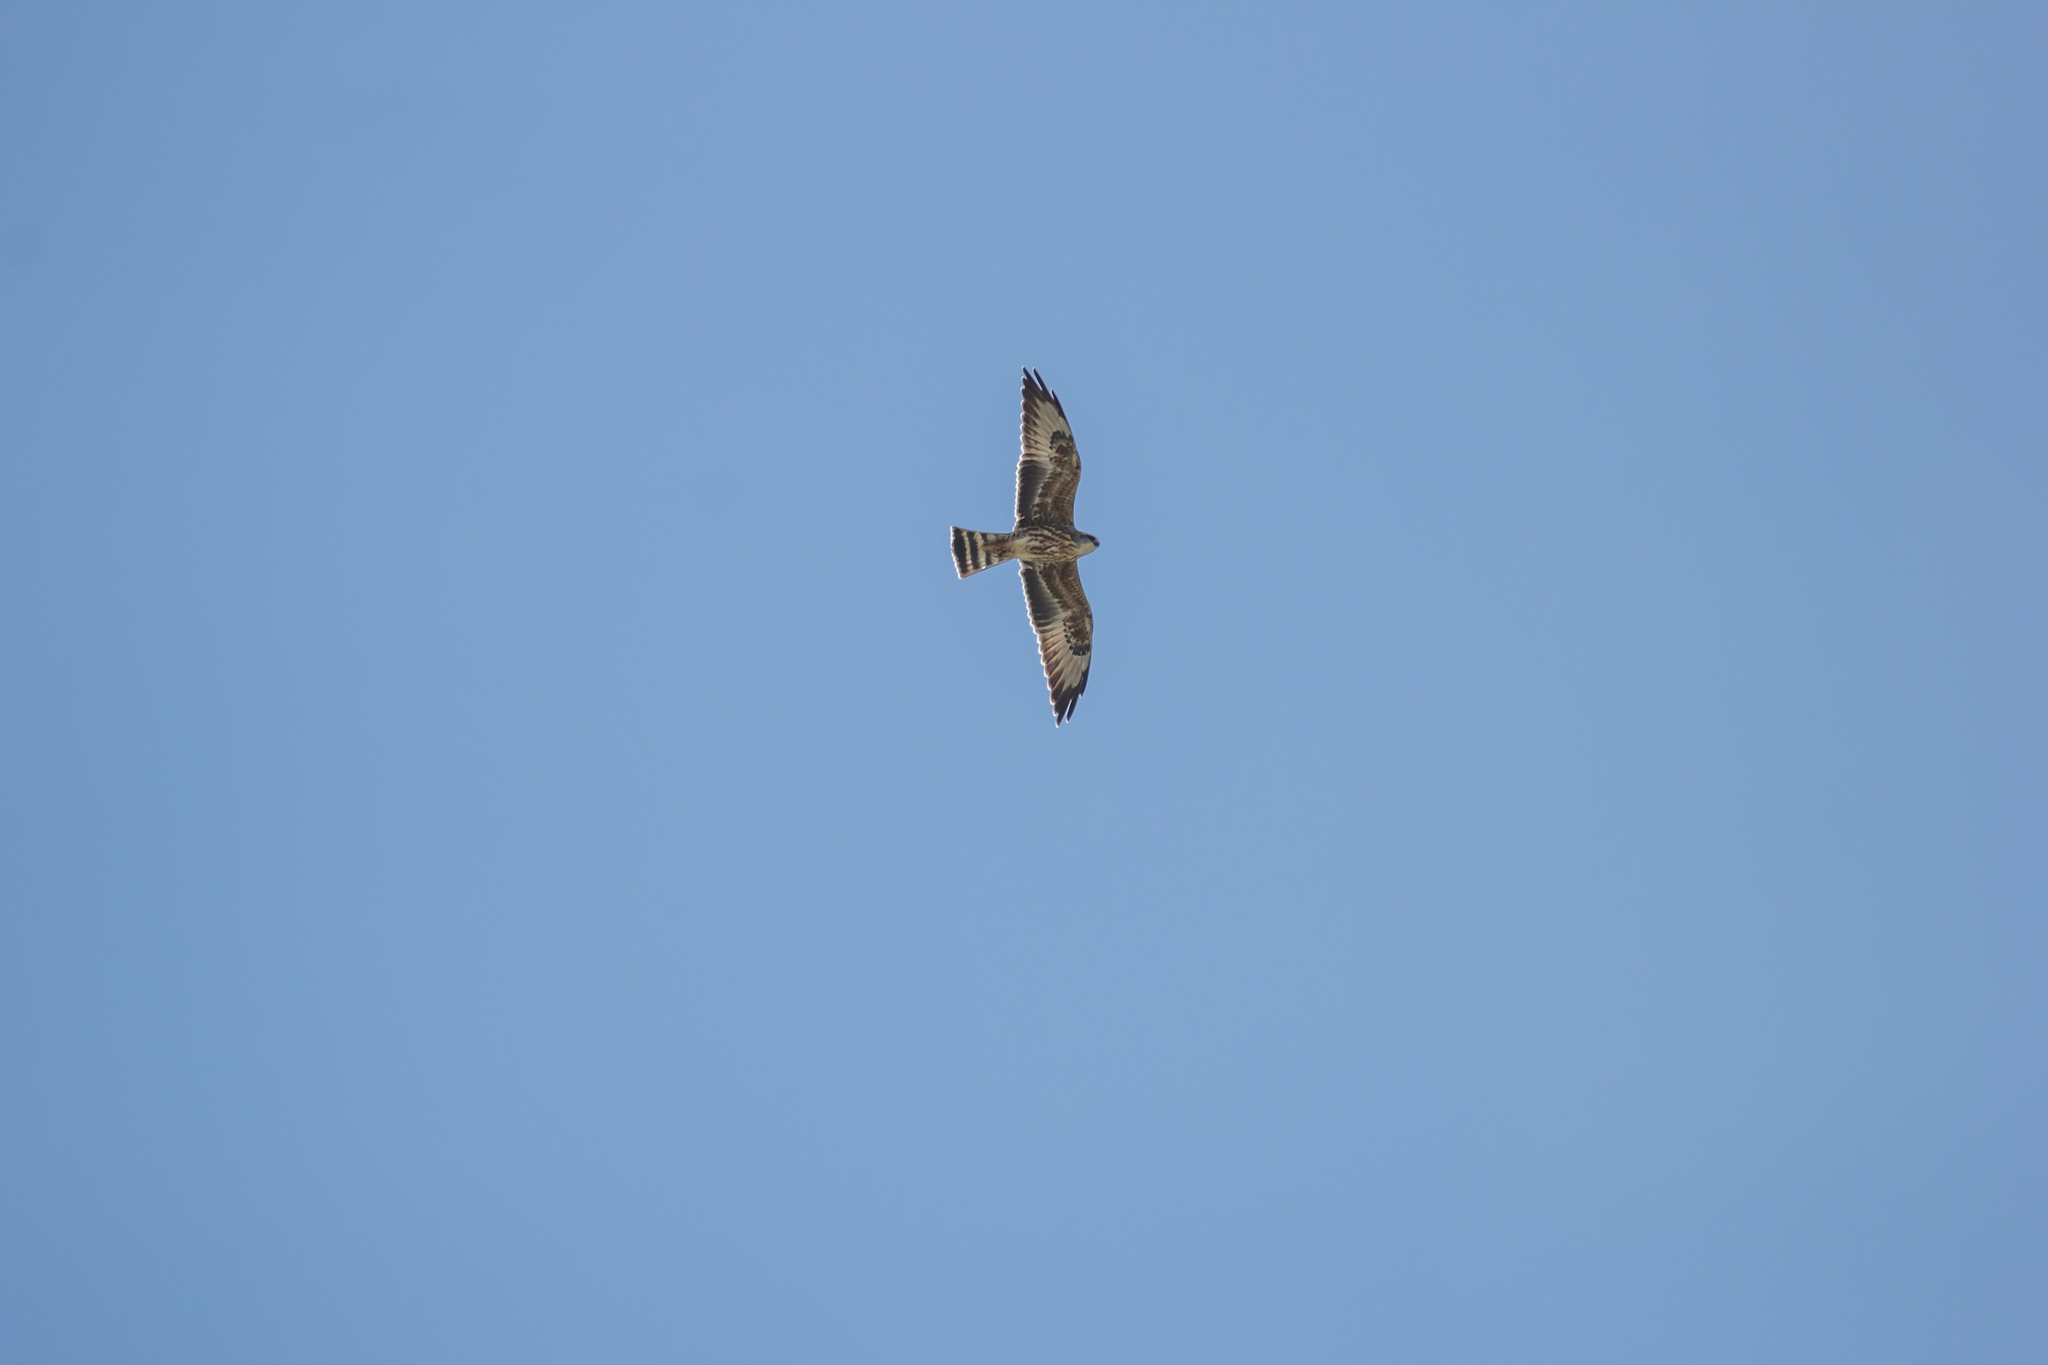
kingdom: Animalia
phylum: Chordata
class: Aves
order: Accipitriformes
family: Accipitridae
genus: Ictinia
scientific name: Ictinia mississippiensis
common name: Mississippi kite
